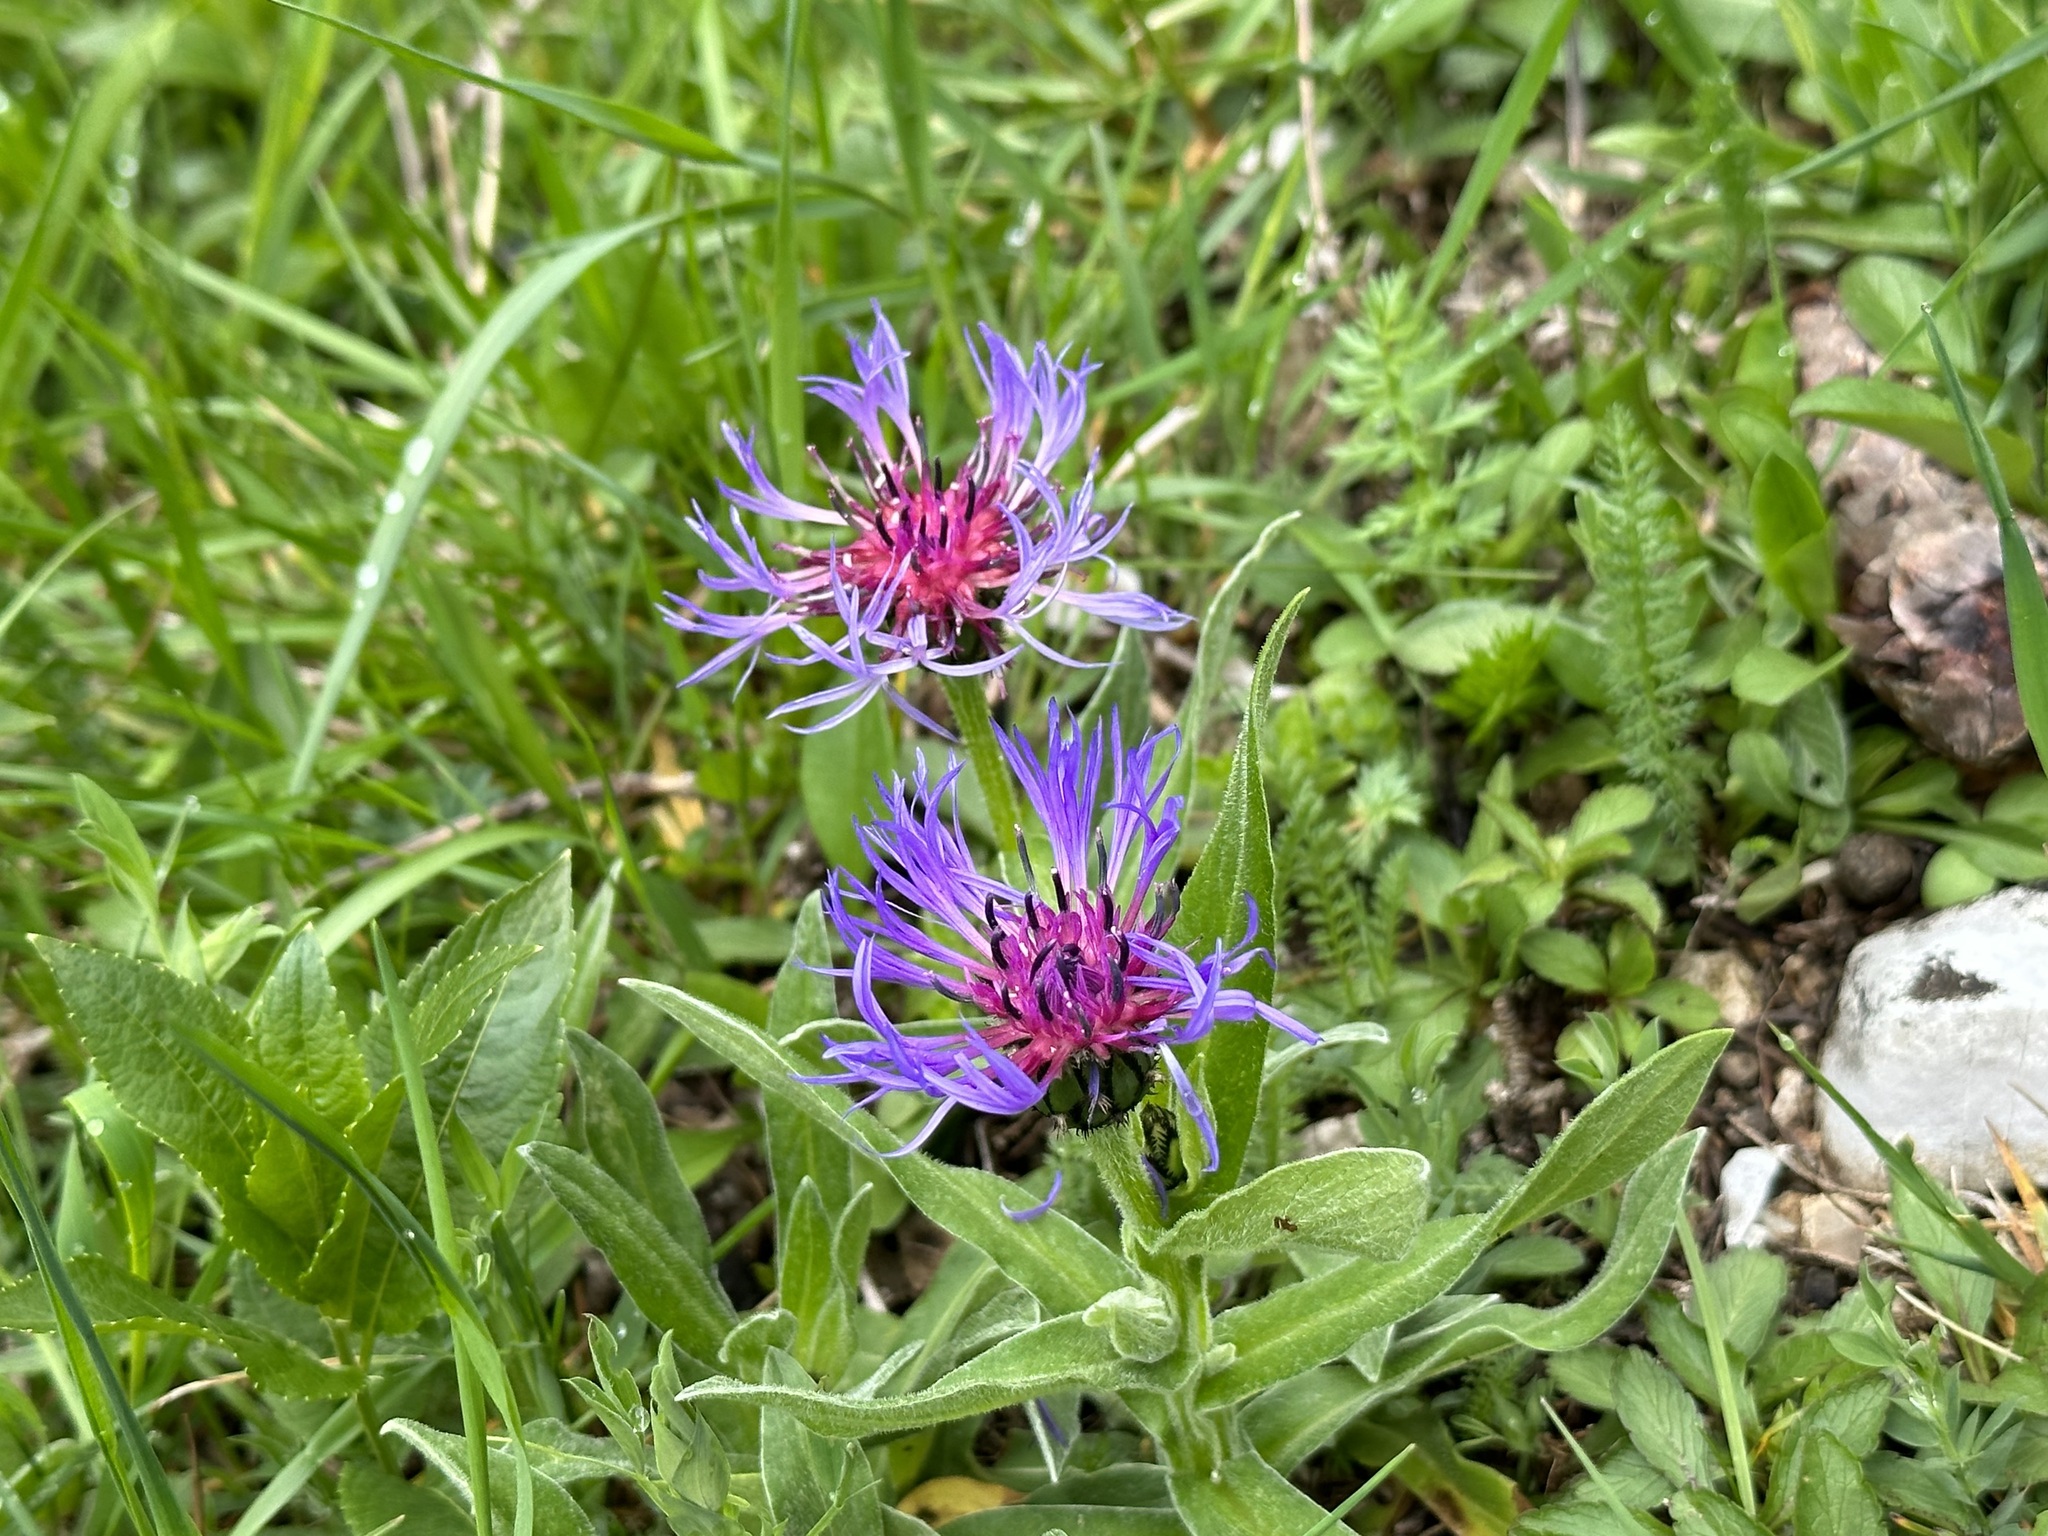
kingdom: Plantae
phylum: Tracheophyta
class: Magnoliopsida
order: Asterales
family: Asteraceae
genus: Centaurea
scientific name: Centaurea montana
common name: Perennial cornflower
